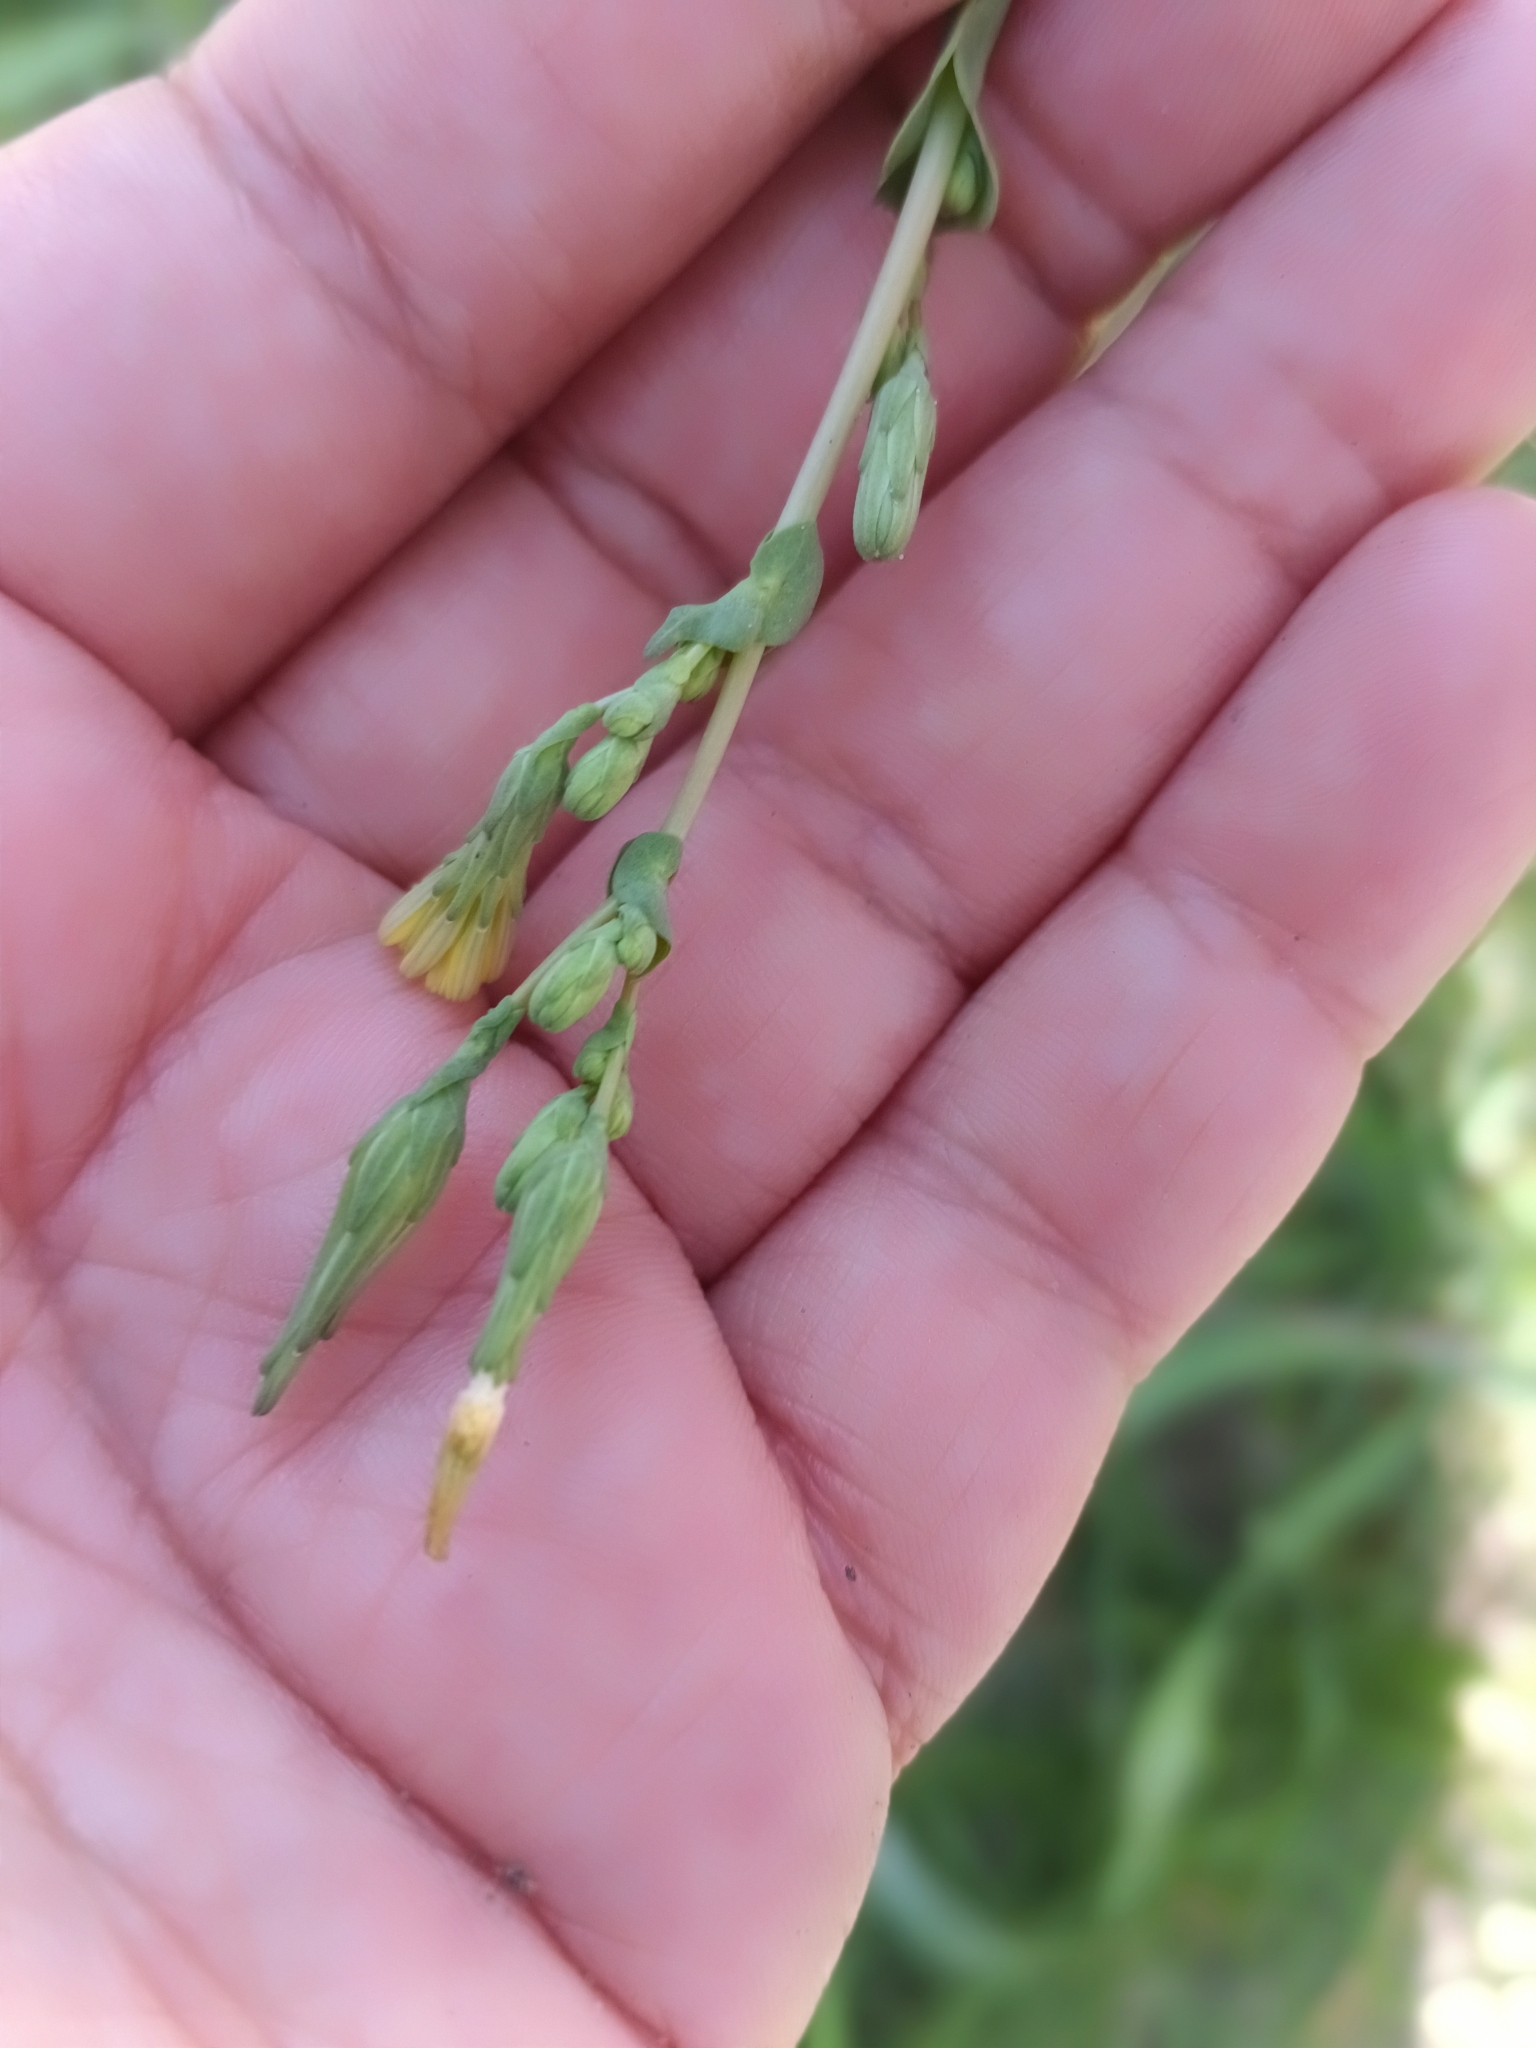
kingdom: Plantae
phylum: Tracheophyta
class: Magnoliopsida
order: Asterales
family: Asteraceae
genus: Lactuca
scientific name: Lactuca serriola
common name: Prickly lettuce
